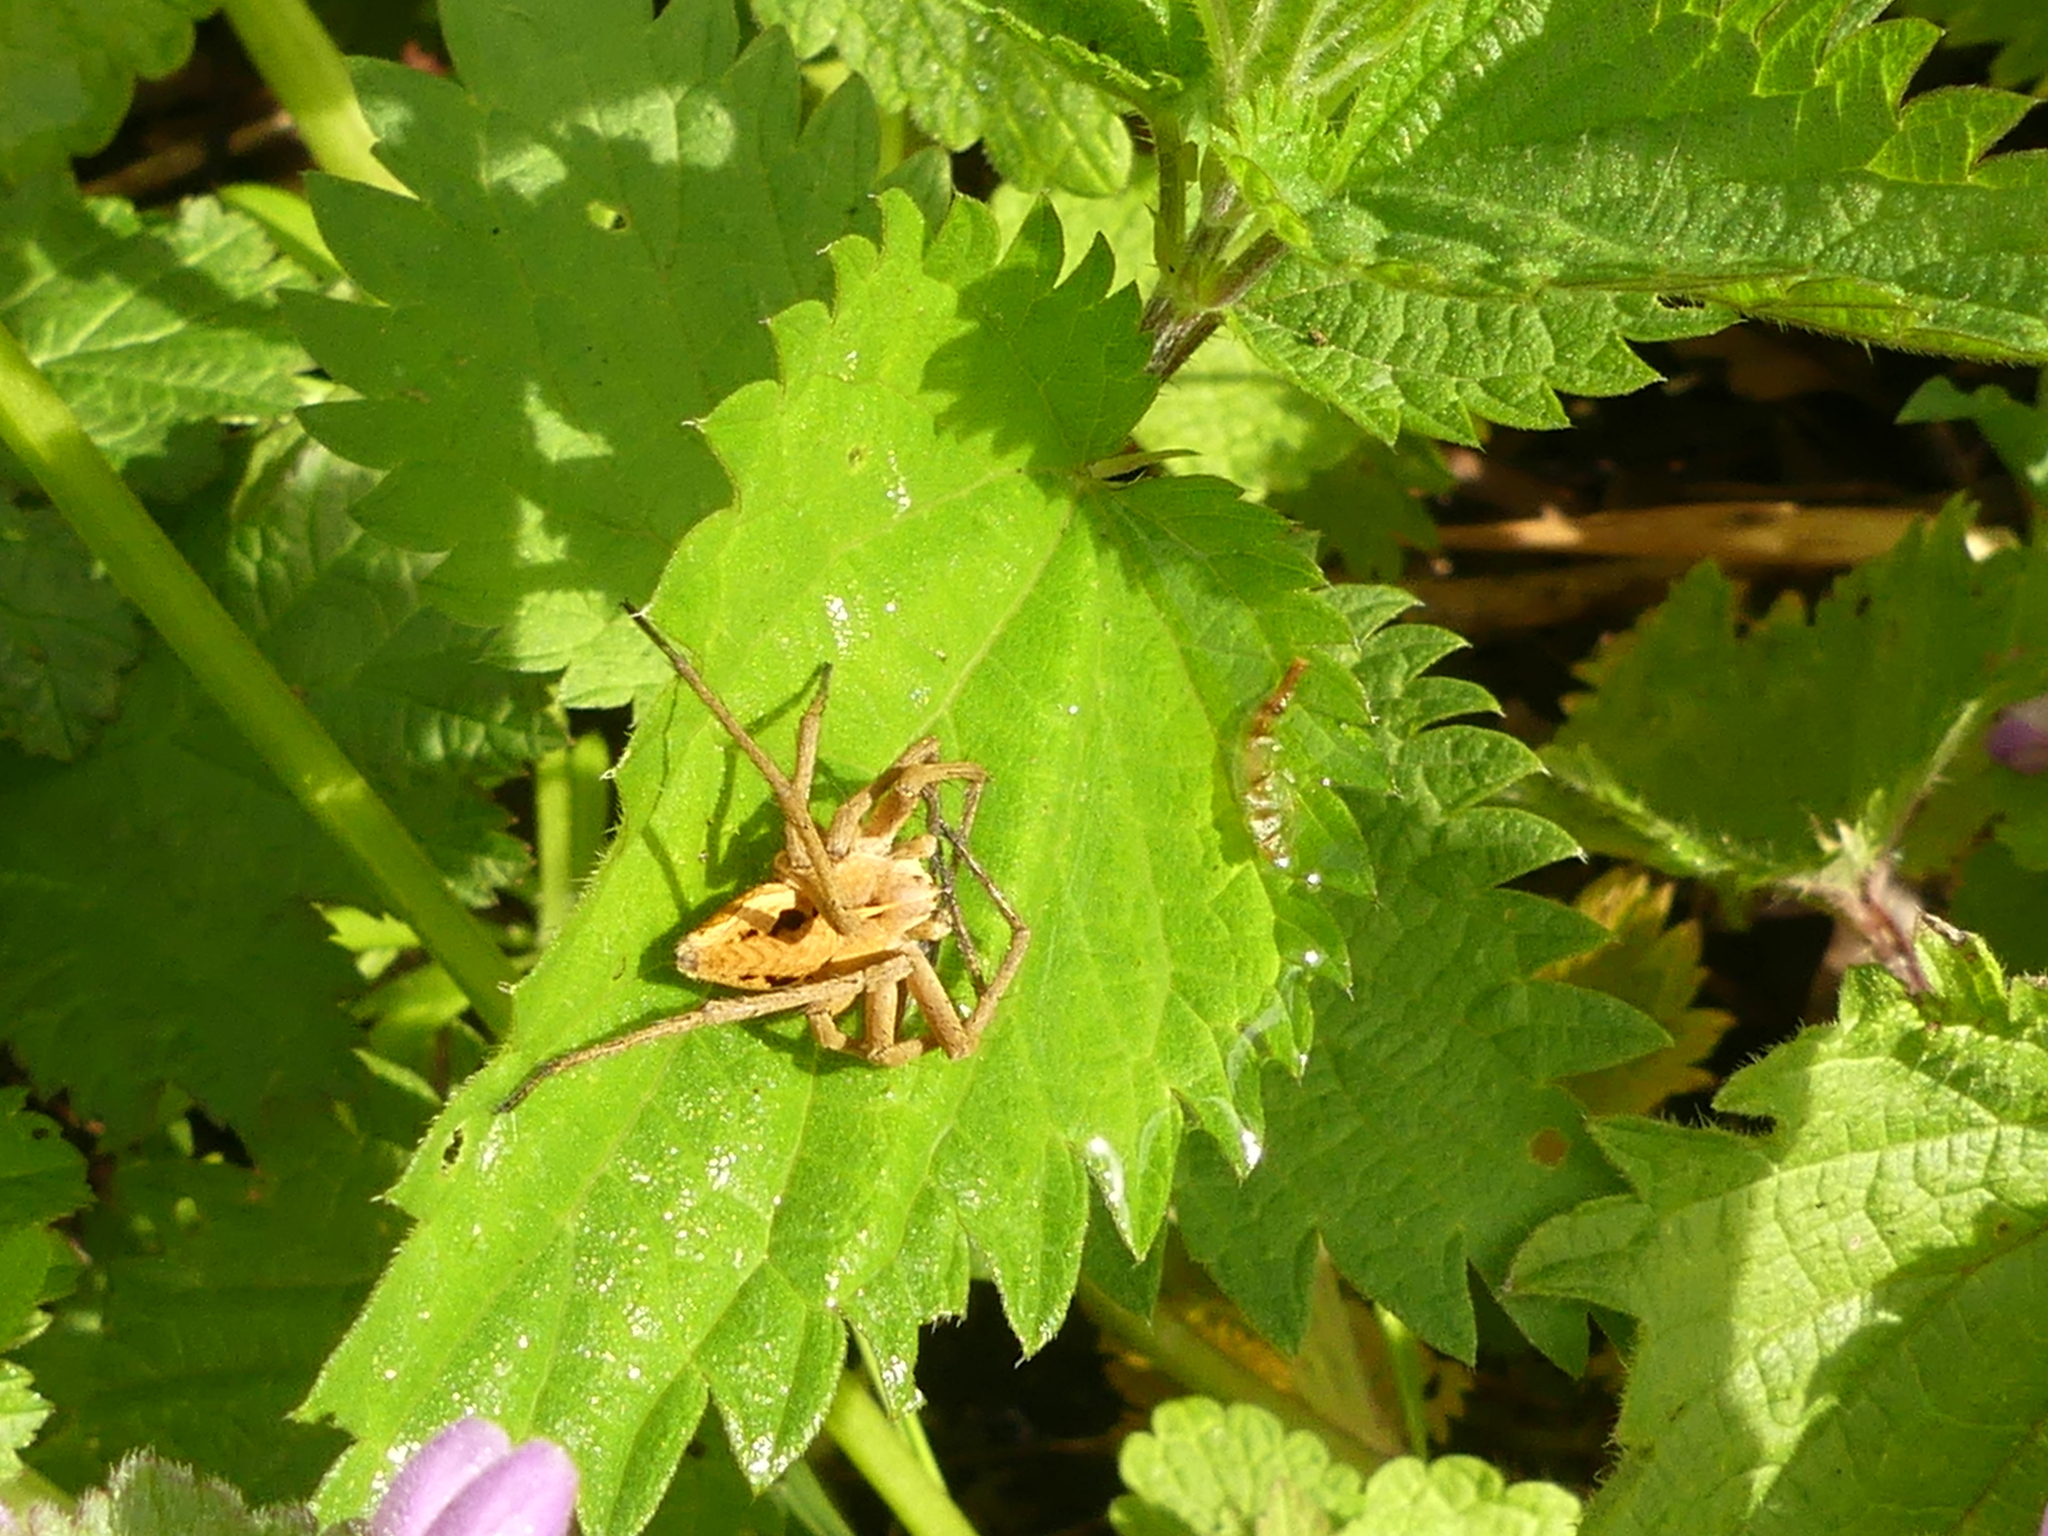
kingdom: Animalia
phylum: Arthropoda
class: Arachnida
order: Araneae
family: Pisauridae
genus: Pisaura
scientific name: Pisaura mirabilis
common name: Tent spider
